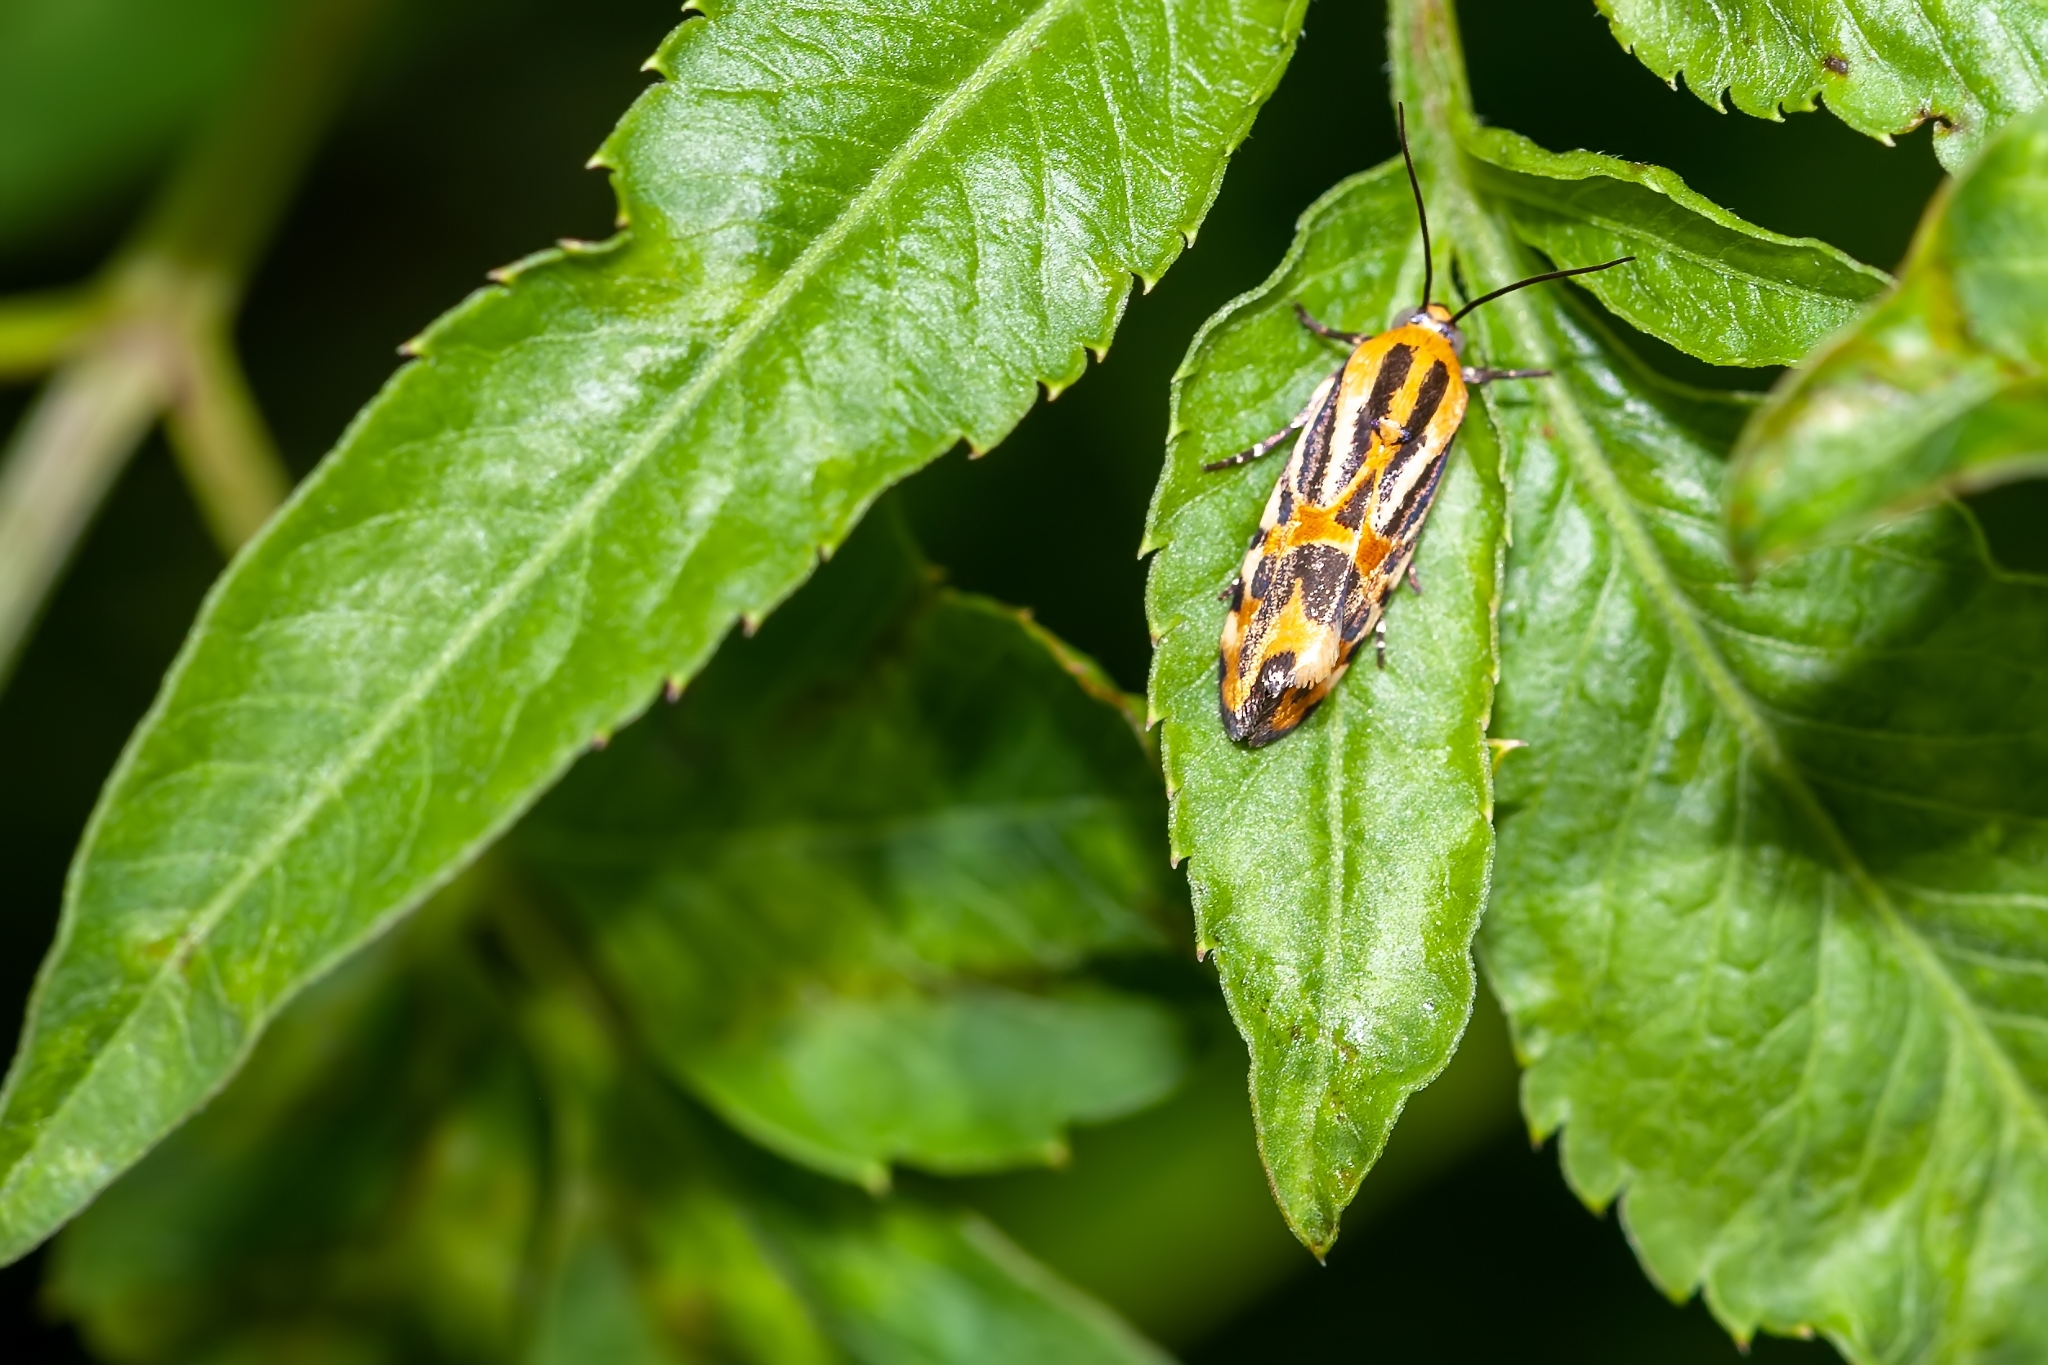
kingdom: Animalia
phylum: Arthropoda
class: Insecta
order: Lepidoptera
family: Noctuidae
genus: Acontia
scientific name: Acontia onagrus
